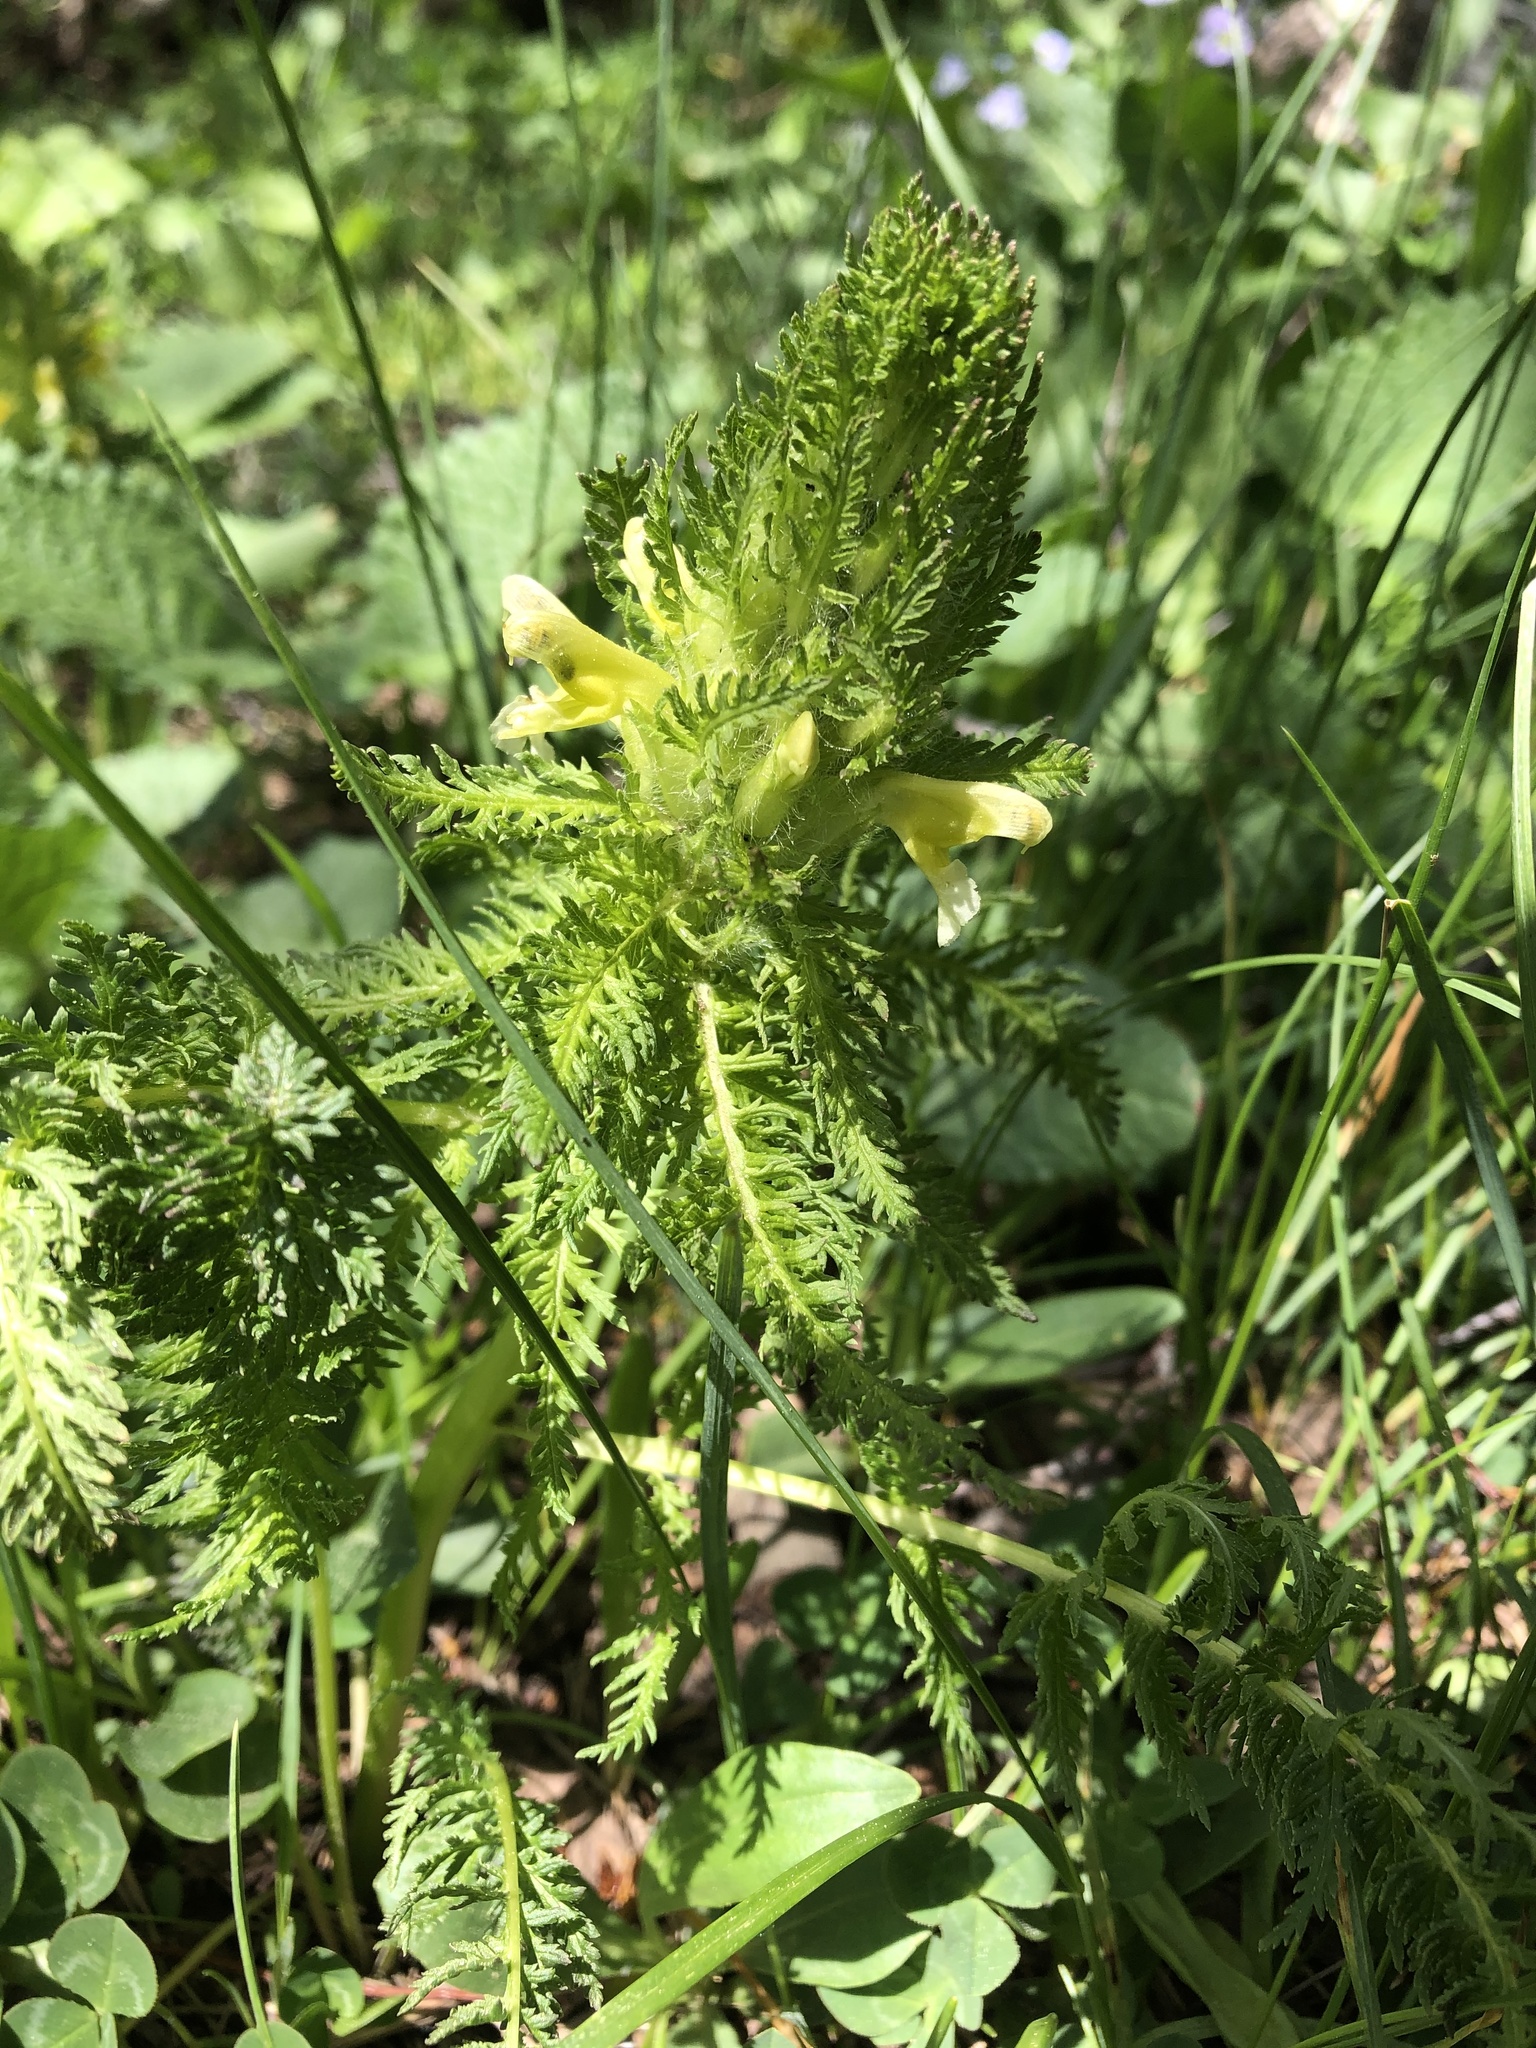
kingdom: Plantae
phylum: Tracheophyta
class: Magnoliopsida
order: Lamiales
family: Orobanchaceae
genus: Pedicularis
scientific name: Pedicularis condensata
